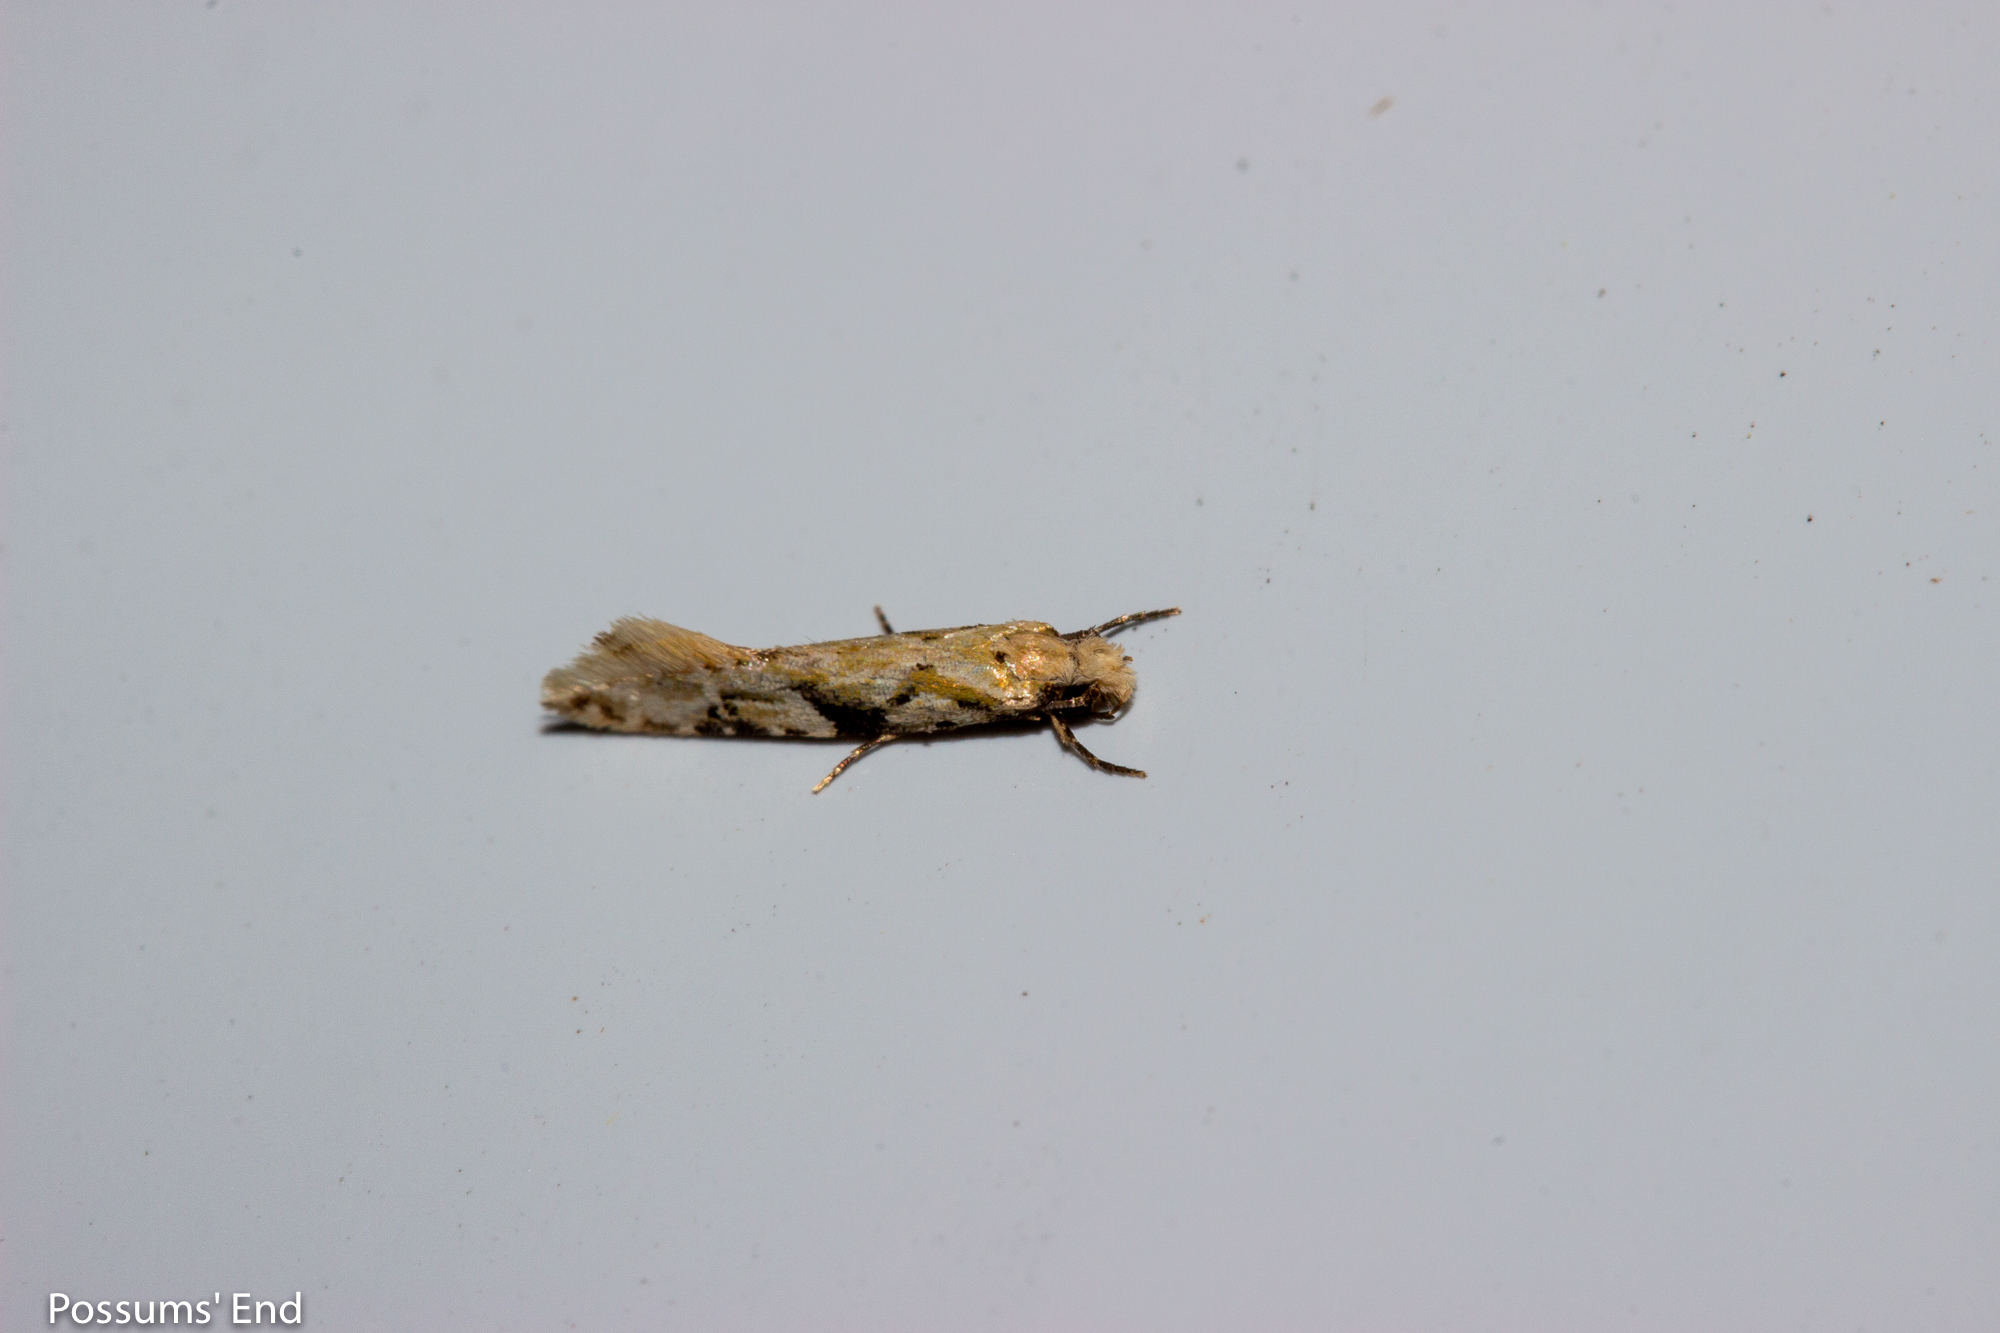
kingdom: Animalia
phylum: Arthropoda
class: Insecta
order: Lepidoptera
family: Tineidae
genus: Crypsitricha
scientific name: Crypsitricha mesotypa
